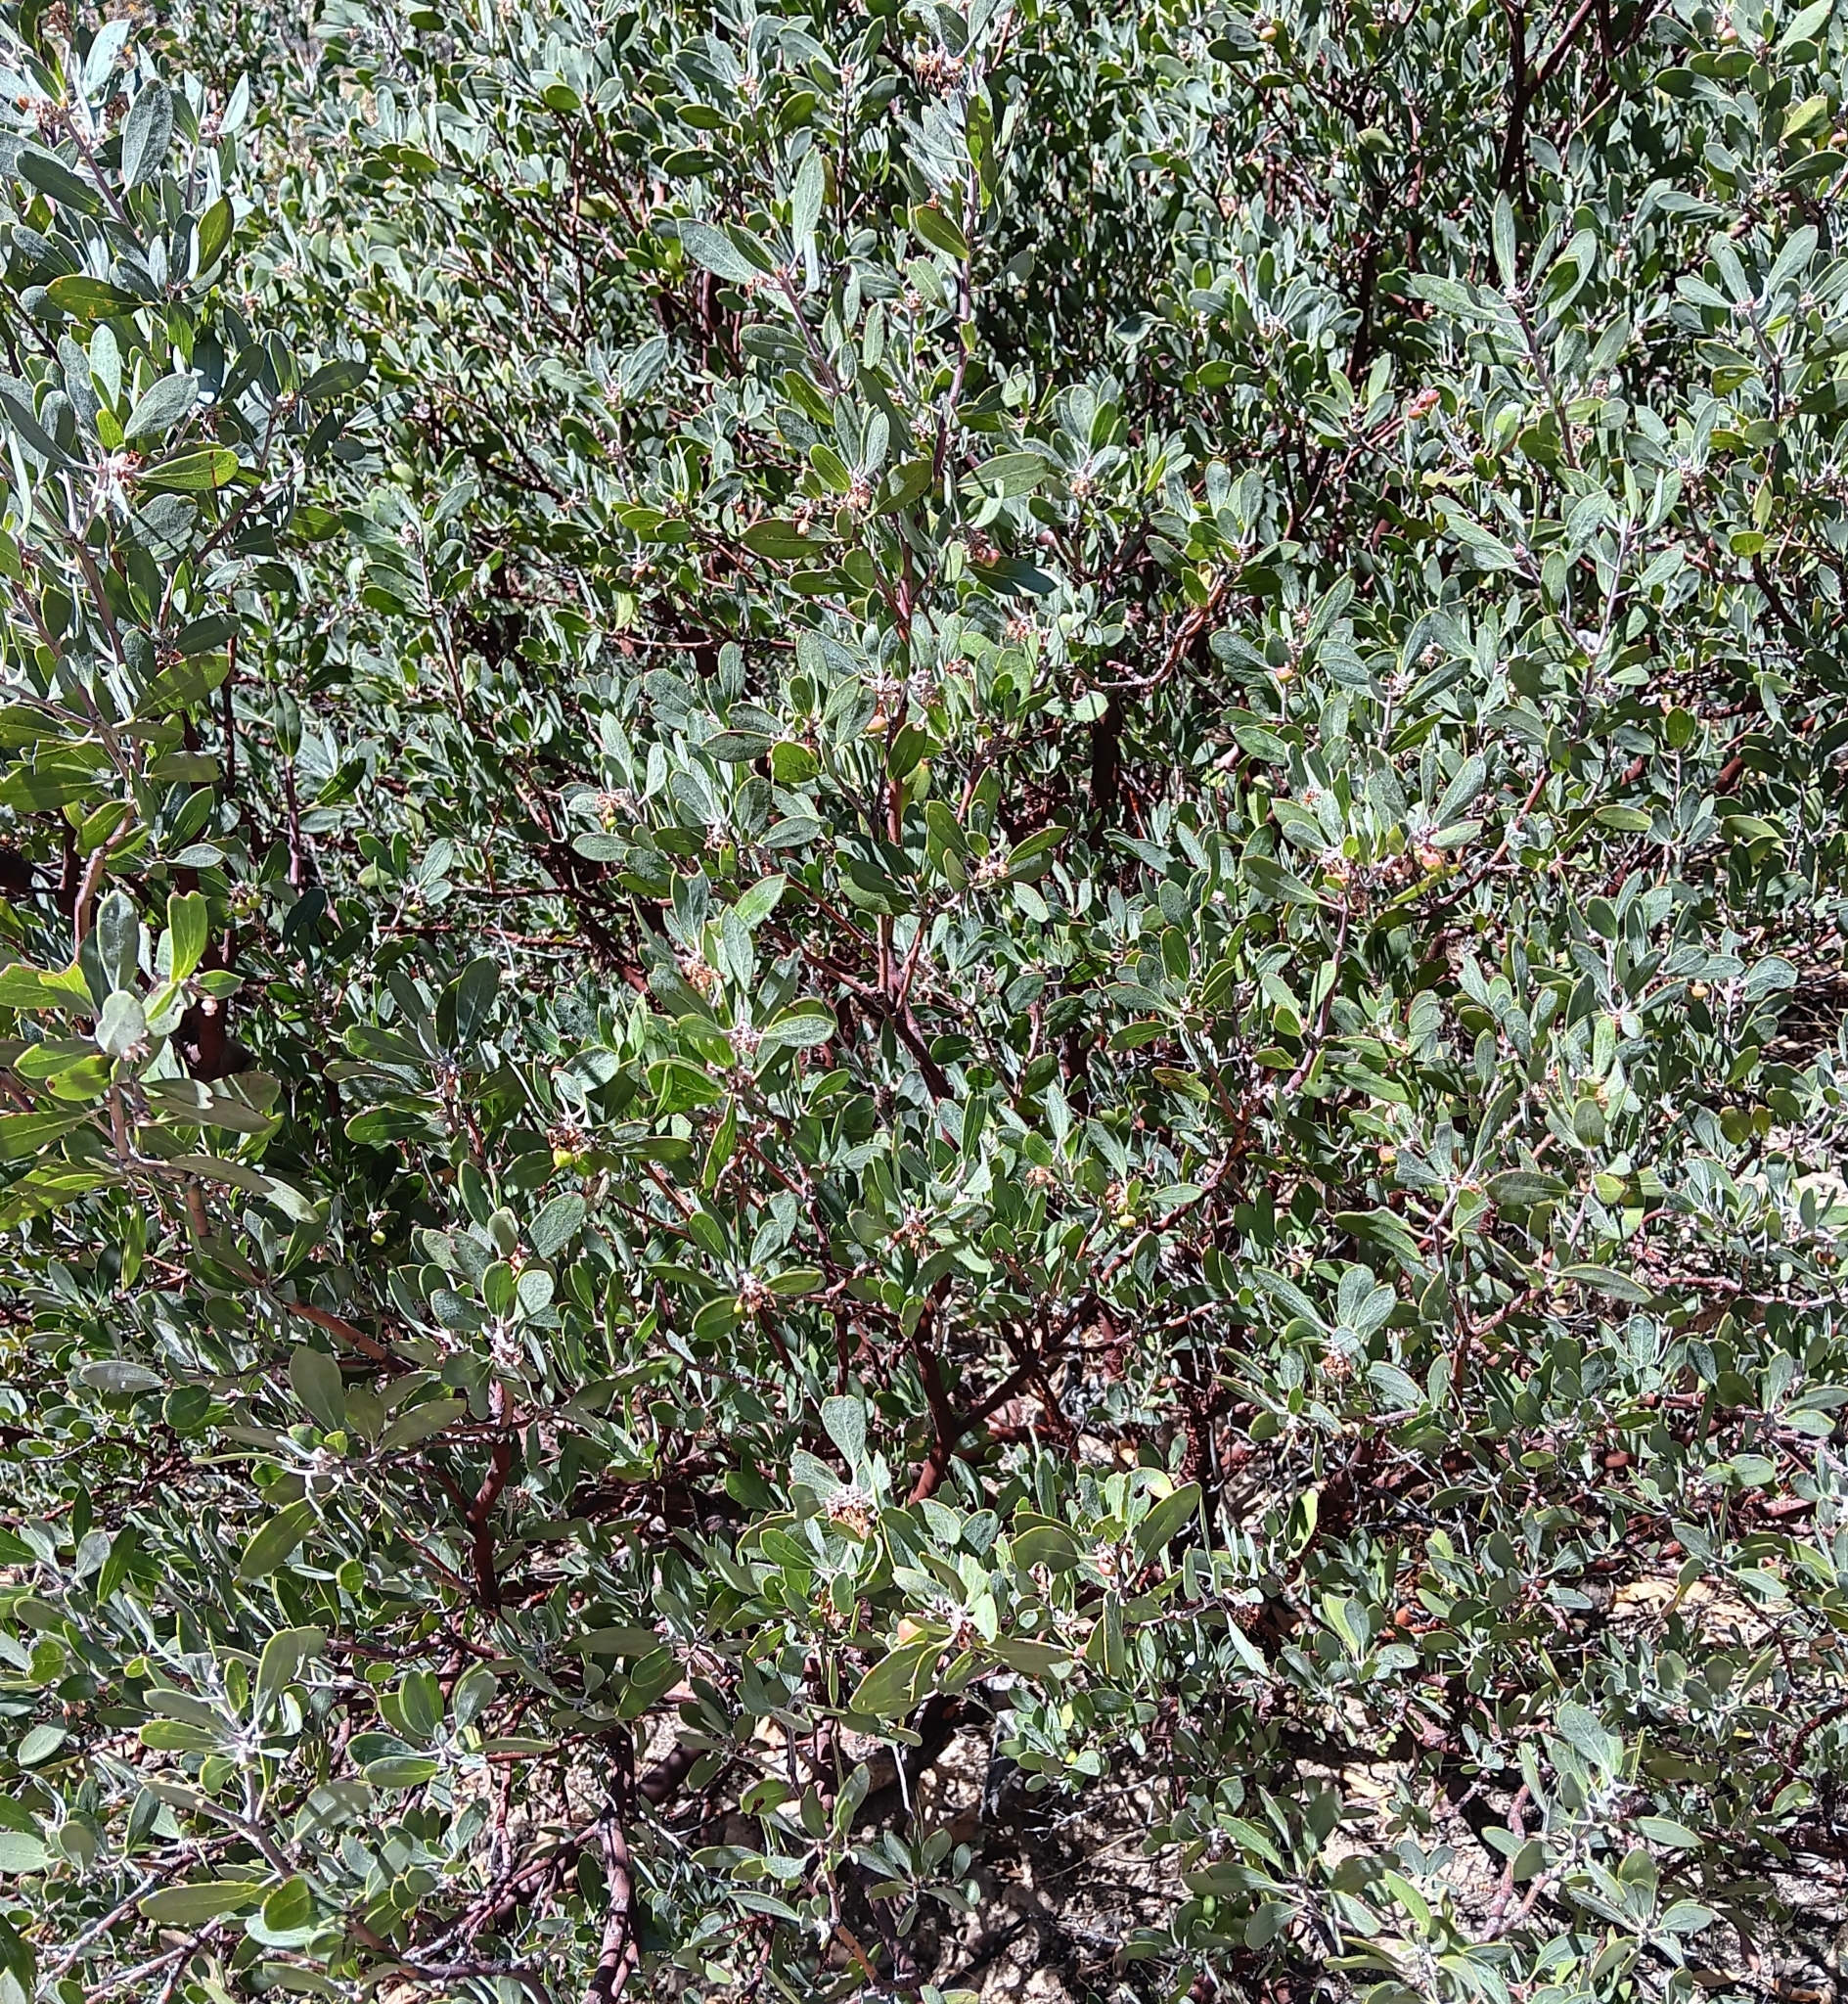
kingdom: Plantae
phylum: Tracheophyta
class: Magnoliopsida
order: Ericales
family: Ericaceae
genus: Arctostaphylos
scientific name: Arctostaphylos pungens
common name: Mexican manzanita
